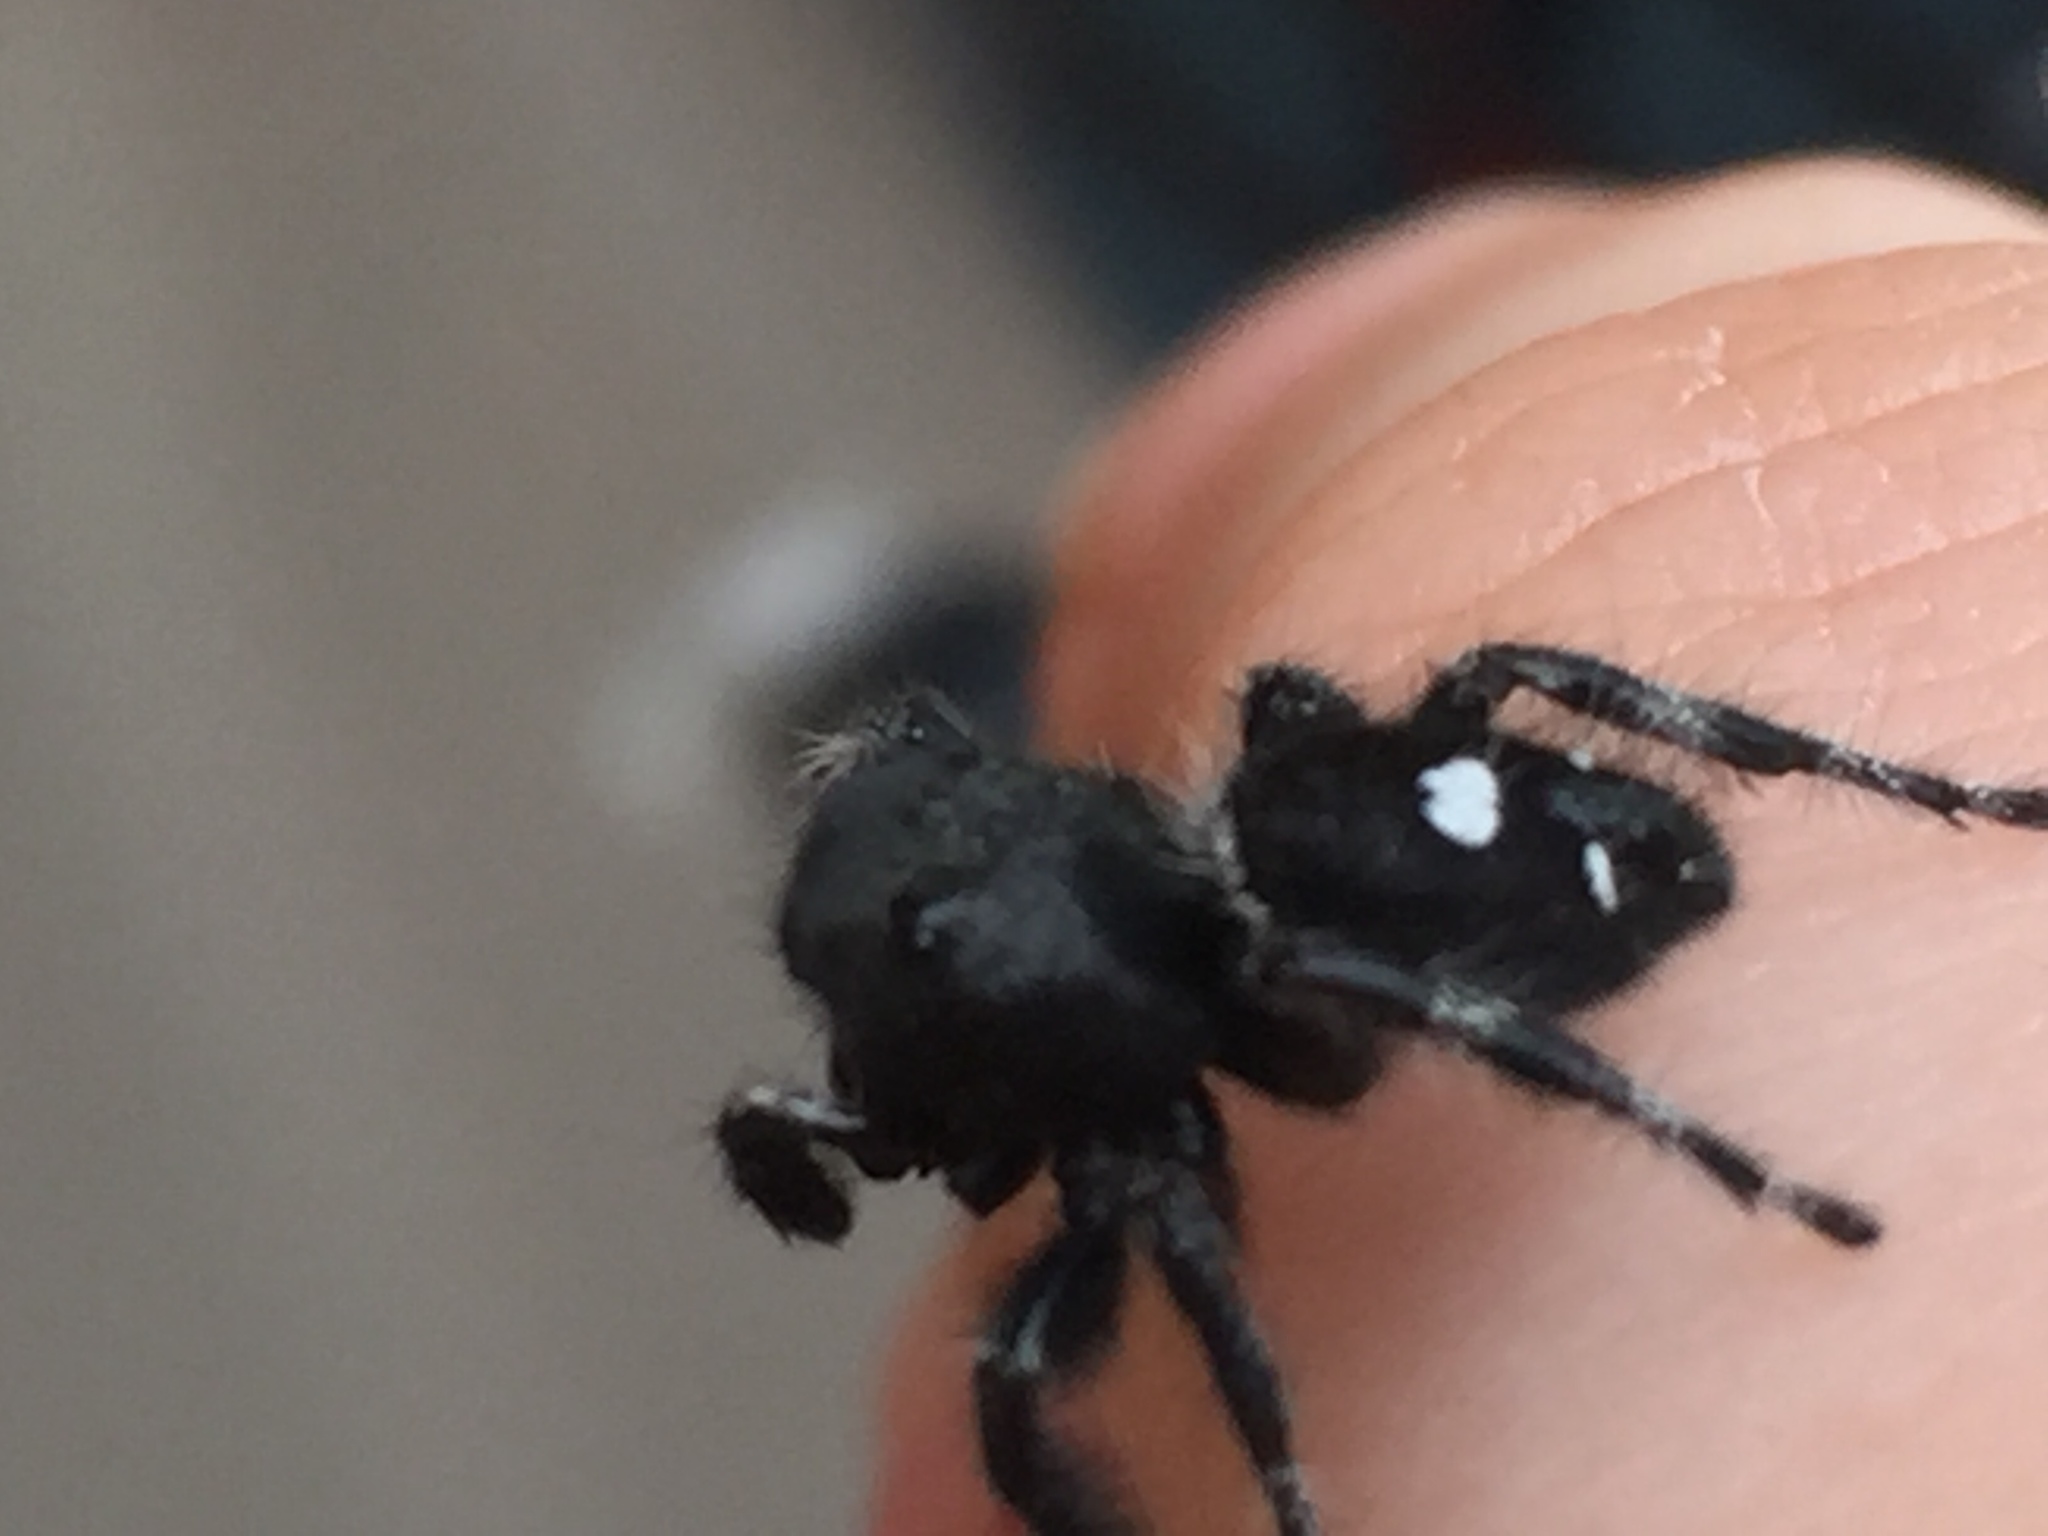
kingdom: Animalia
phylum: Arthropoda
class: Arachnida
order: Araneae
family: Salticidae
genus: Phidippus
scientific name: Phidippus audax
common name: Bold jumper
